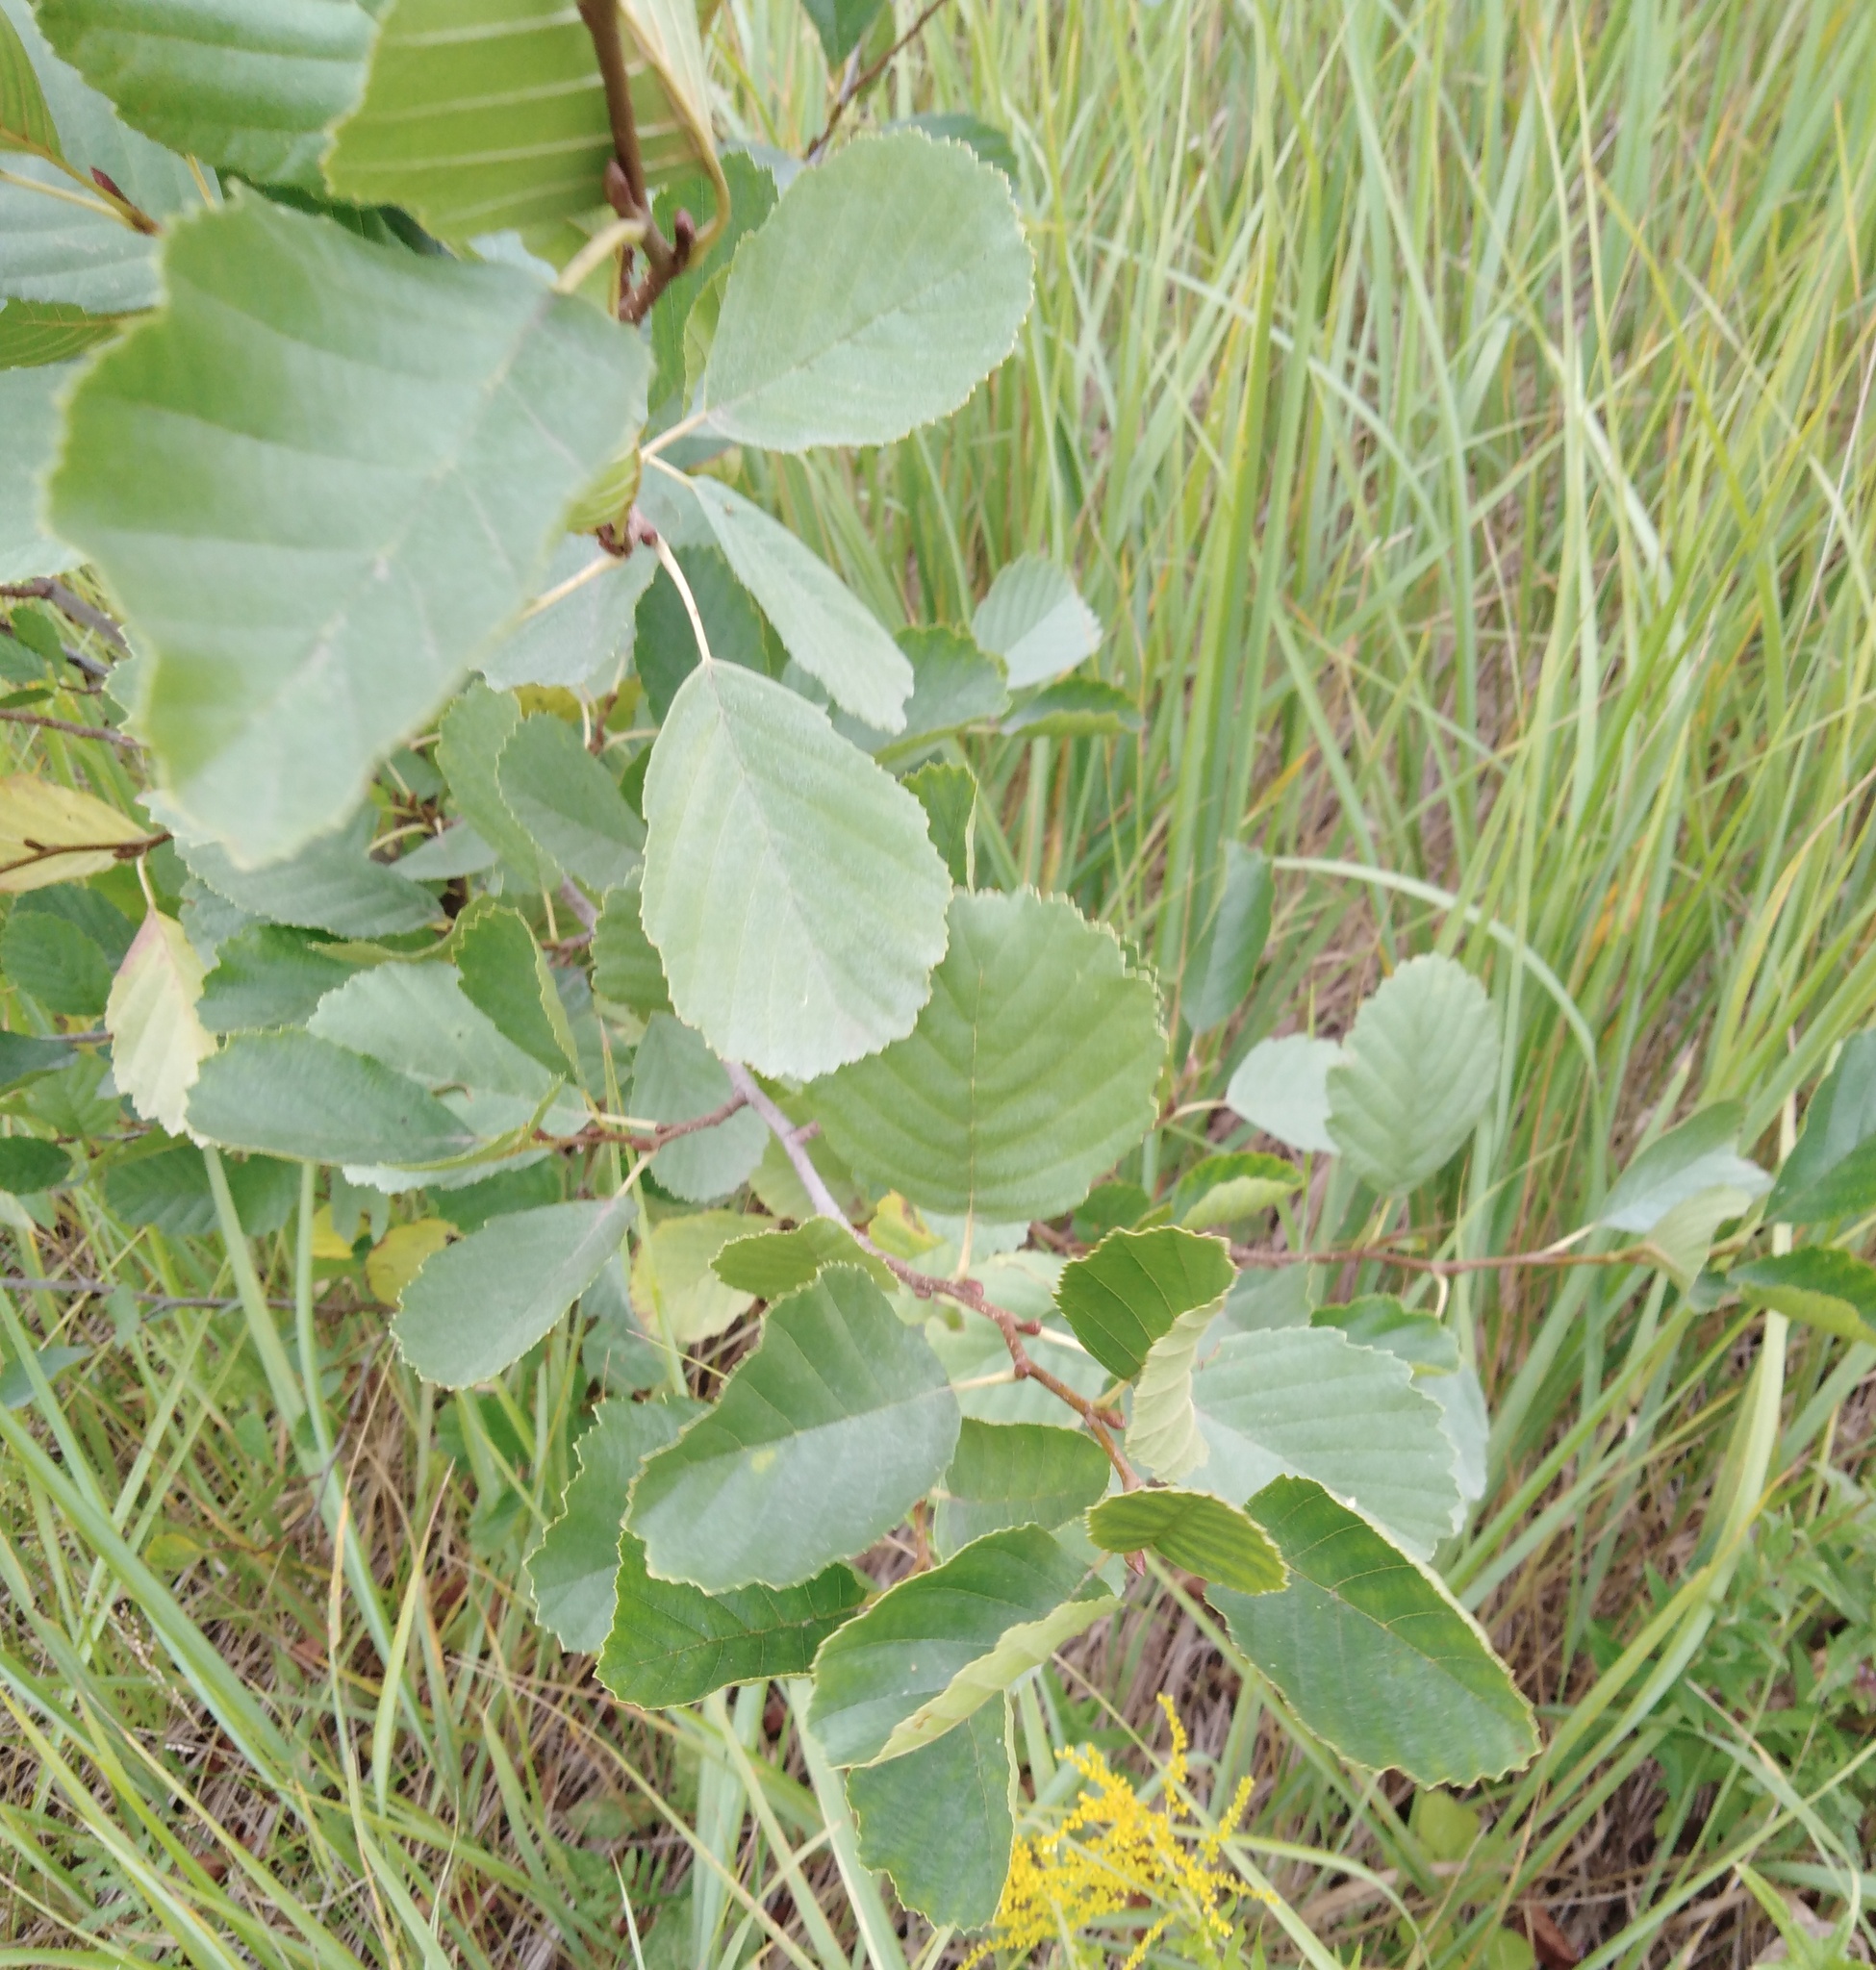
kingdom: Plantae
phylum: Tracheophyta
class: Magnoliopsida
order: Fagales
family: Betulaceae
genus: Alnus
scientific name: Alnus glutinosa
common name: Black alder
